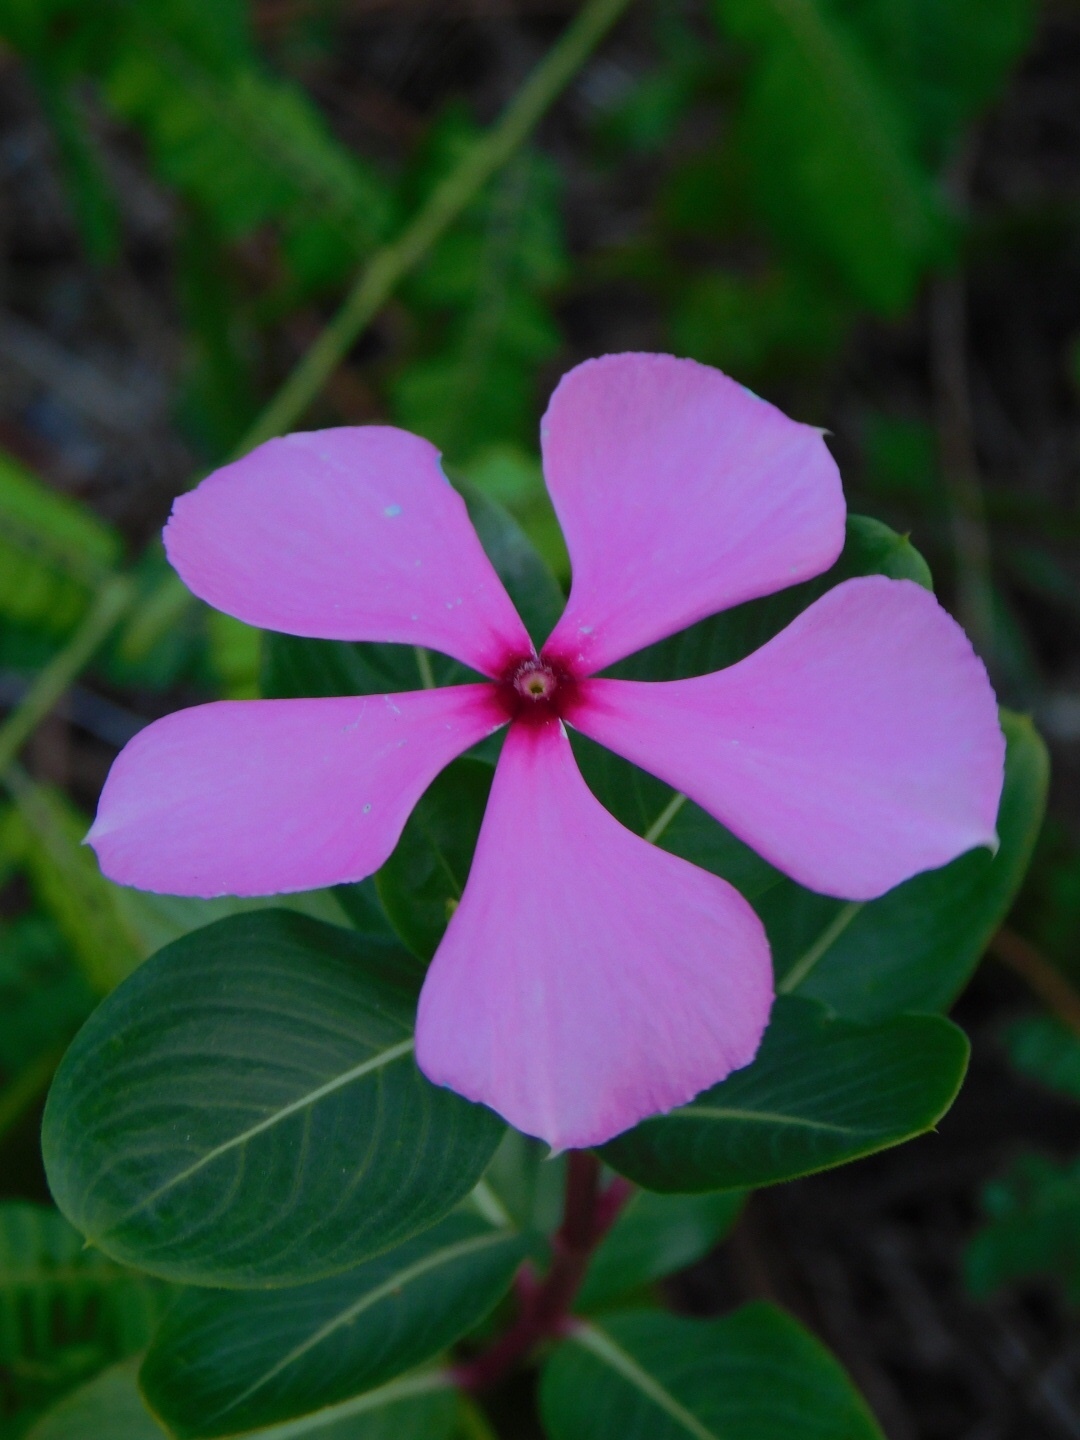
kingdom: Plantae
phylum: Tracheophyta
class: Magnoliopsida
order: Gentianales
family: Apocynaceae
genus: Catharanthus
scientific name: Catharanthus roseus
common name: Madagascar periwinkle
